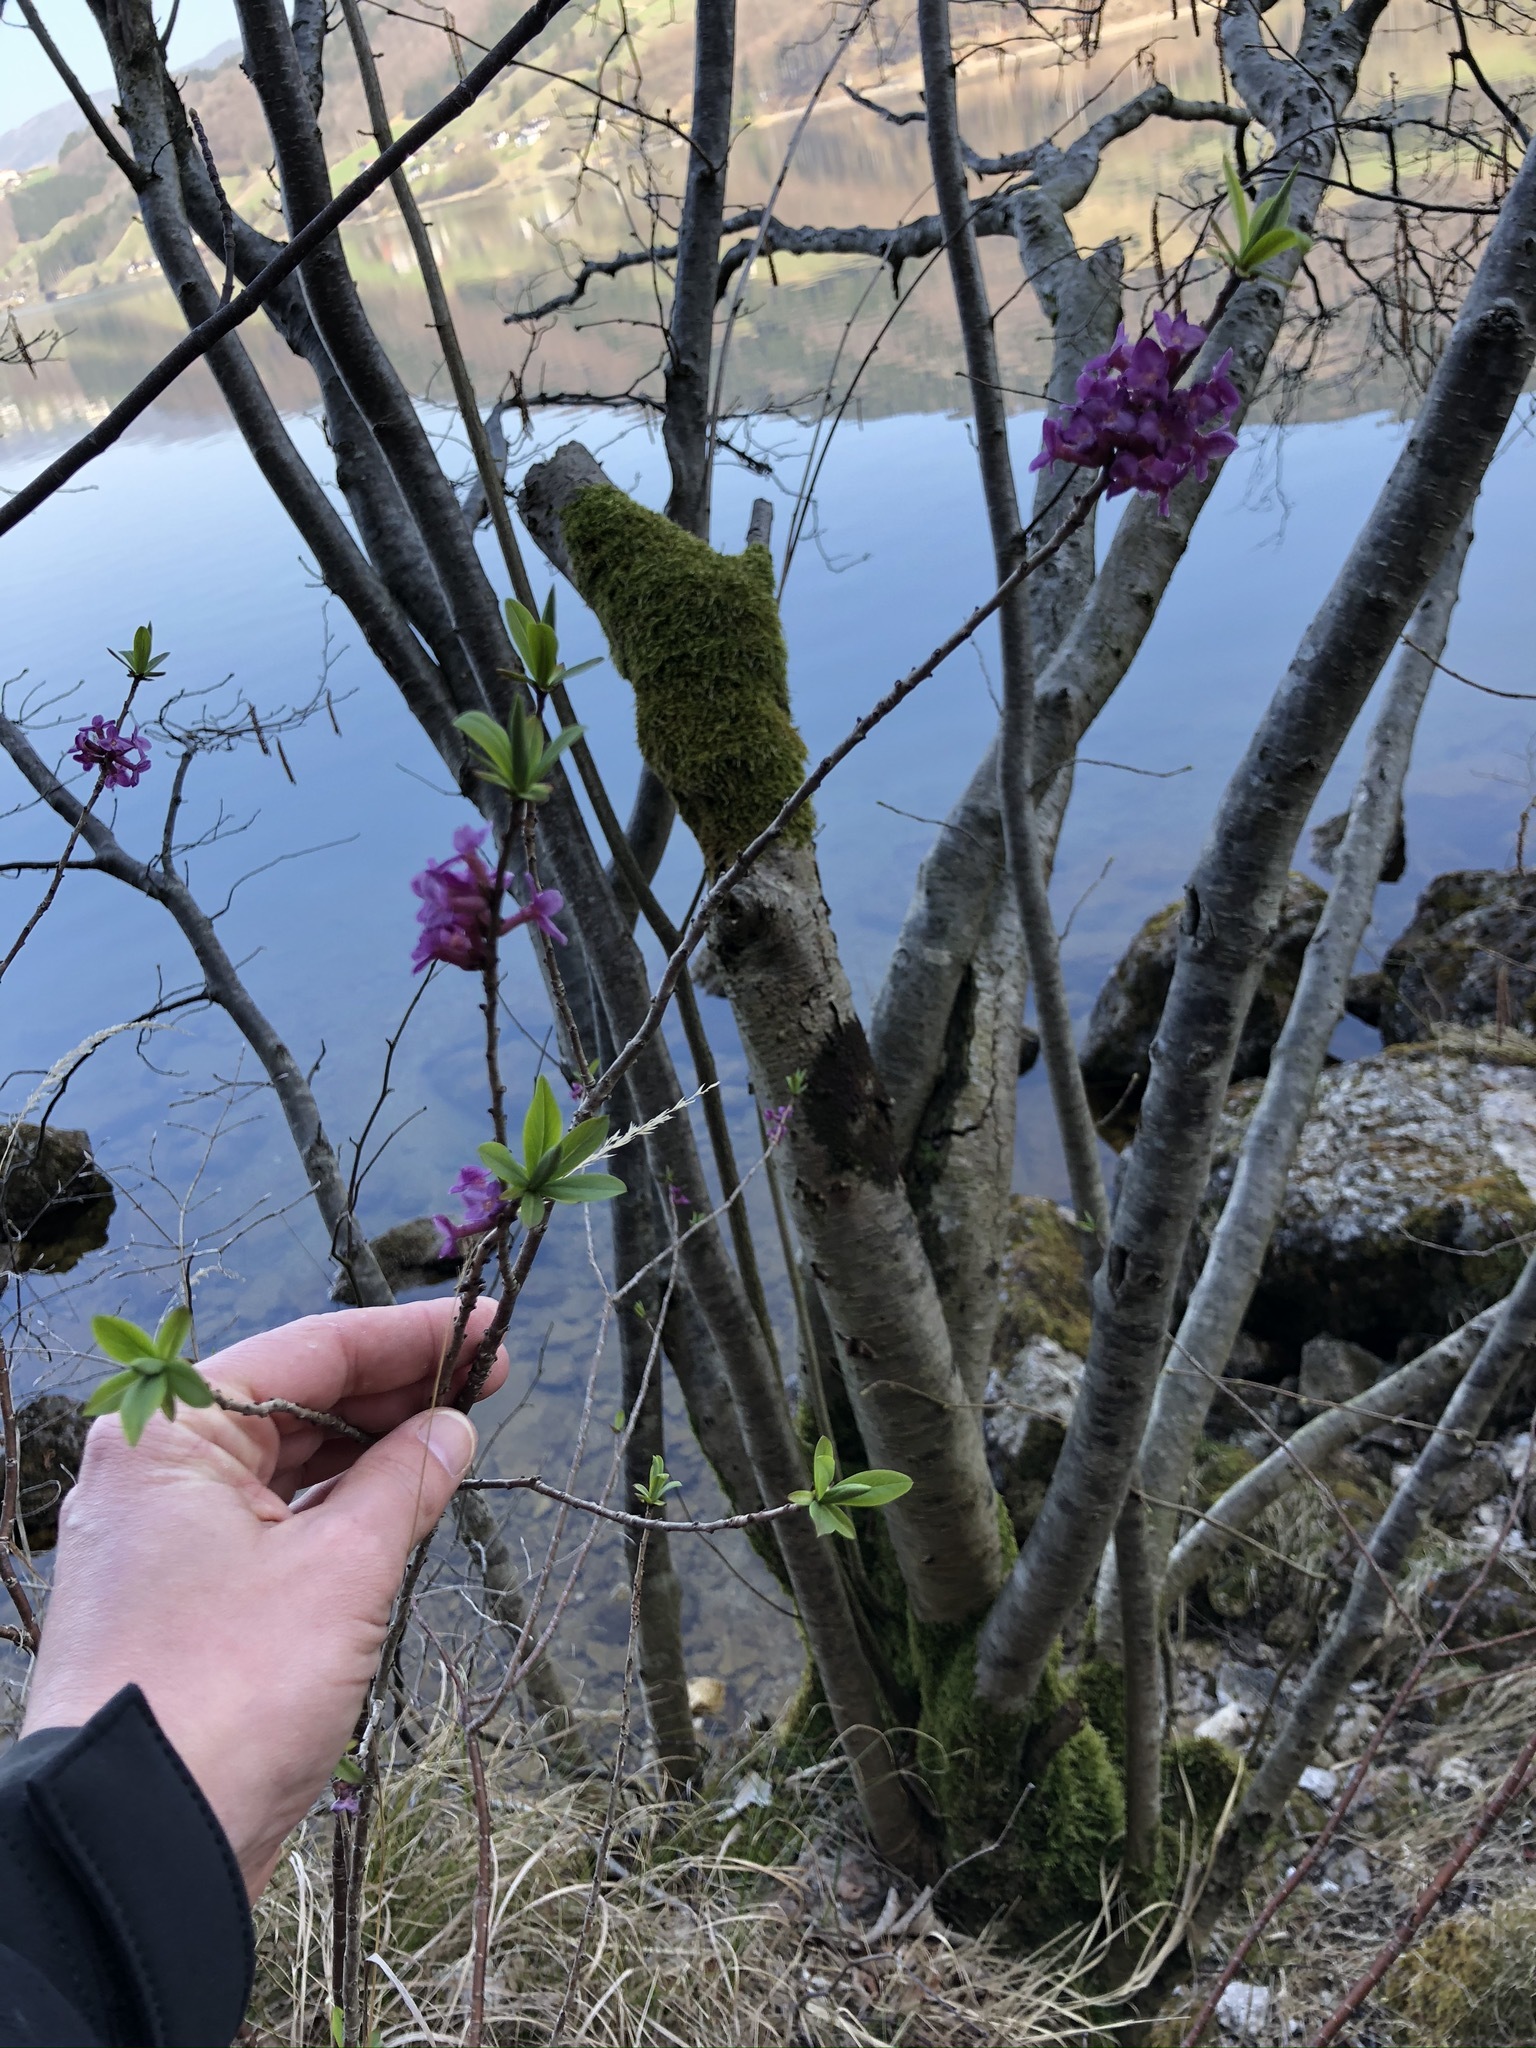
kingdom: Plantae
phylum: Tracheophyta
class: Magnoliopsida
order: Malvales
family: Thymelaeaceae
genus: Daphne
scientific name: Daphne mezereum
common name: Mezereon
